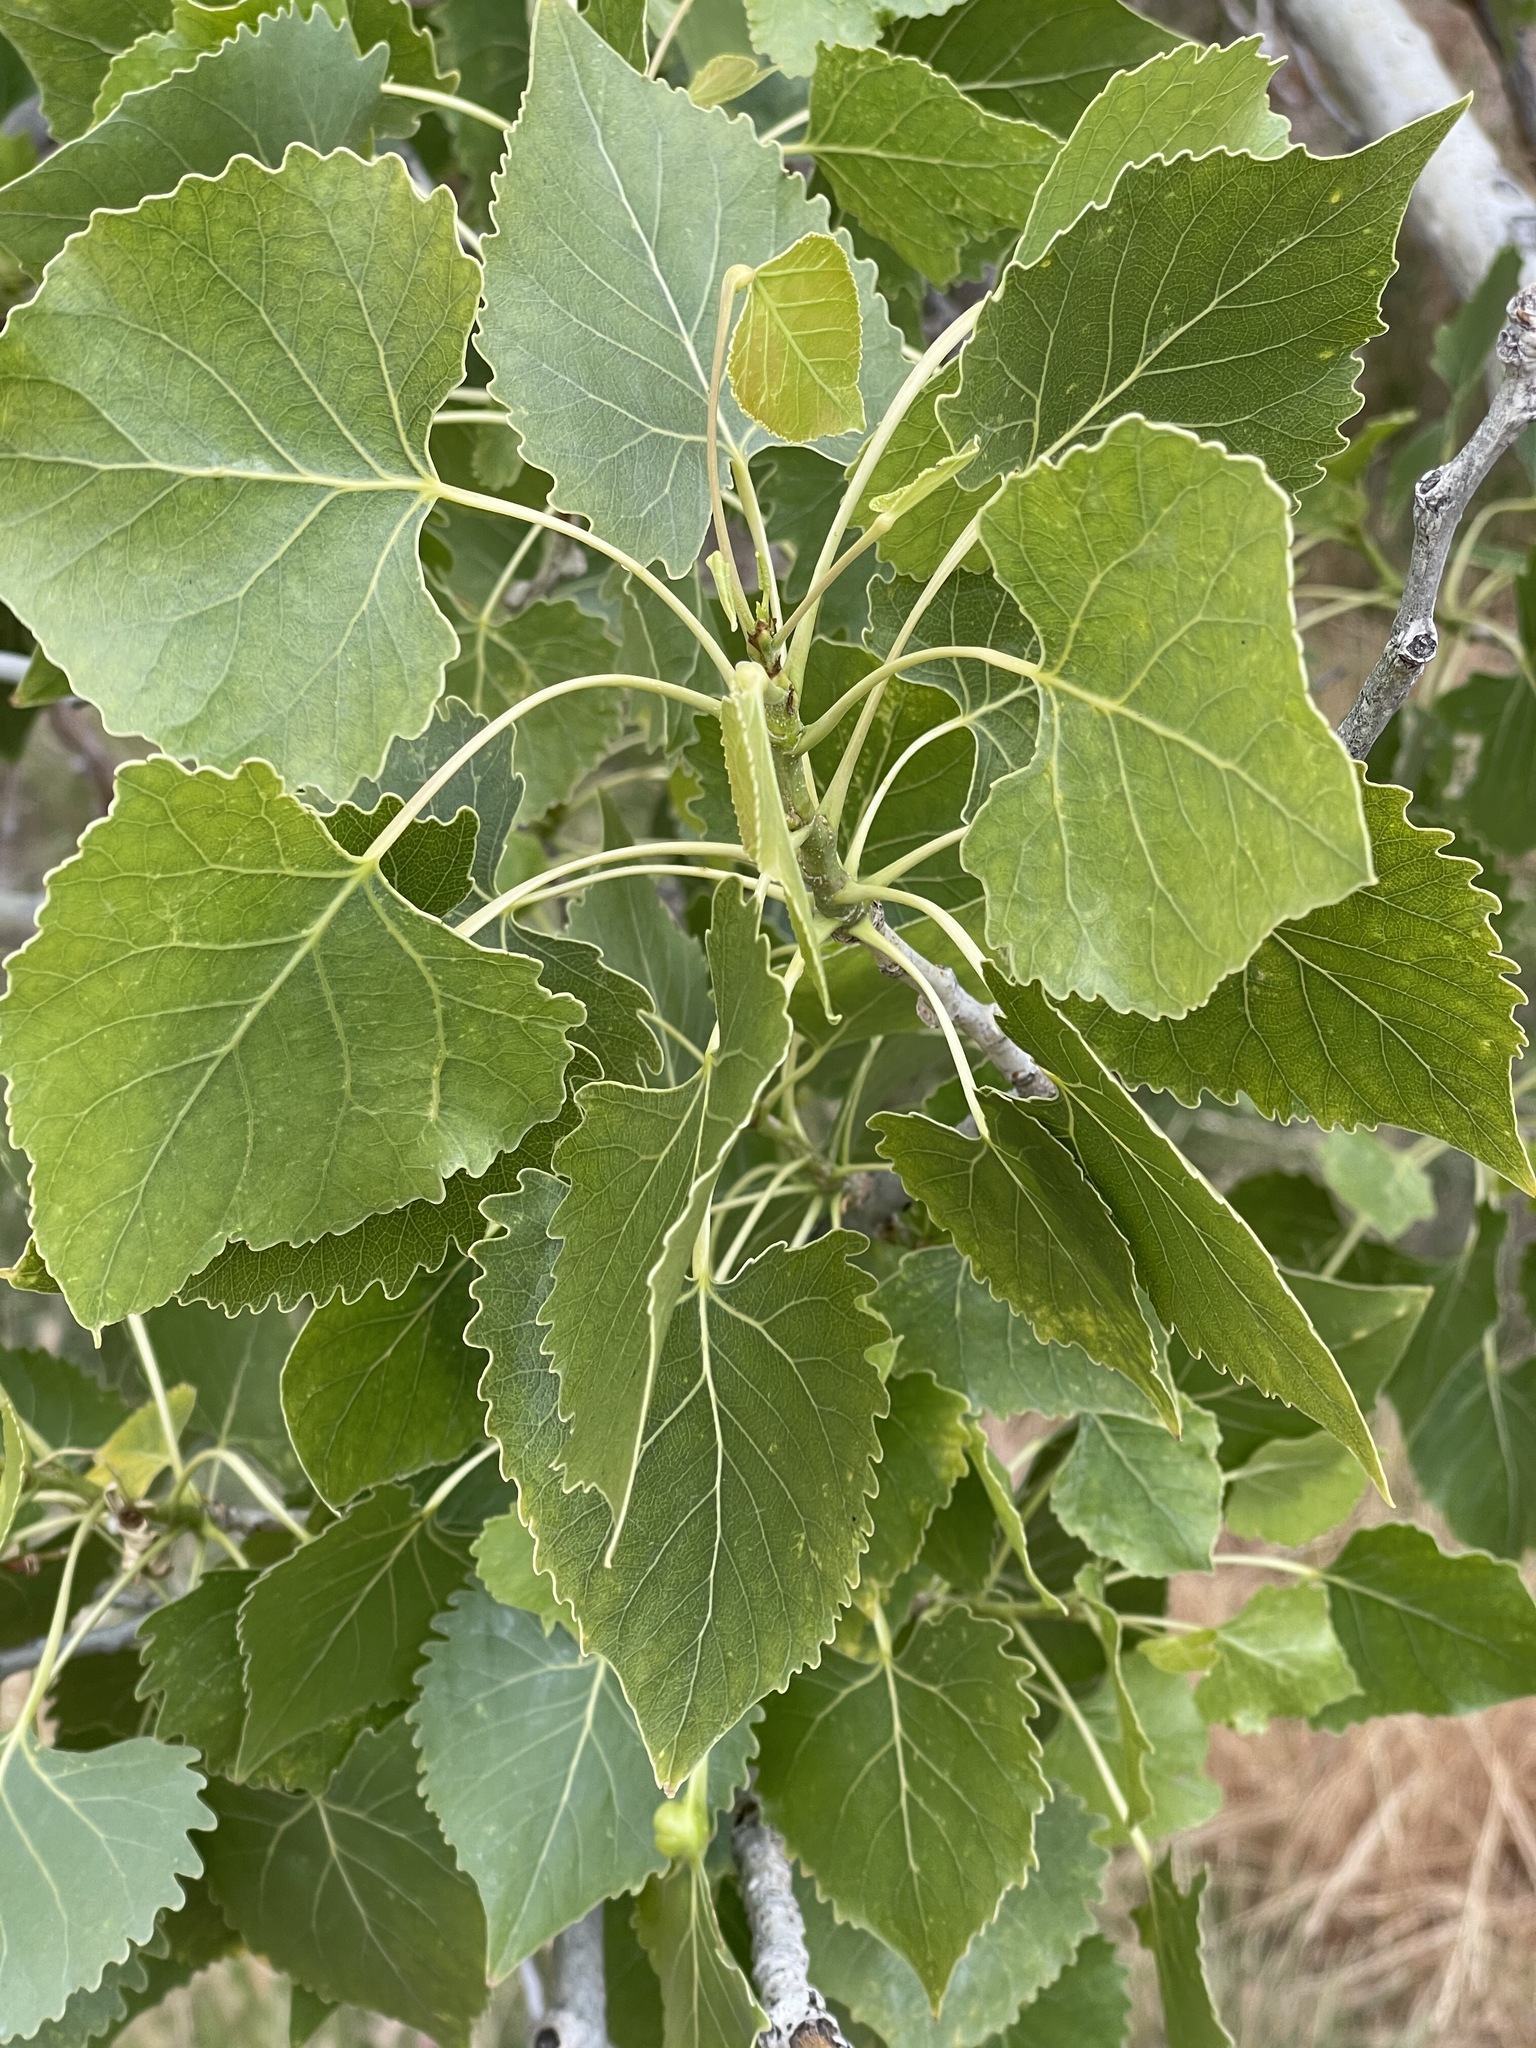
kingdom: Plantae
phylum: Tracheophyta
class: Magnoliopsida
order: Malpighiales
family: Salicaceae
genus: Populus
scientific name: Populus fremontii
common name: Fremont's cottonwood
